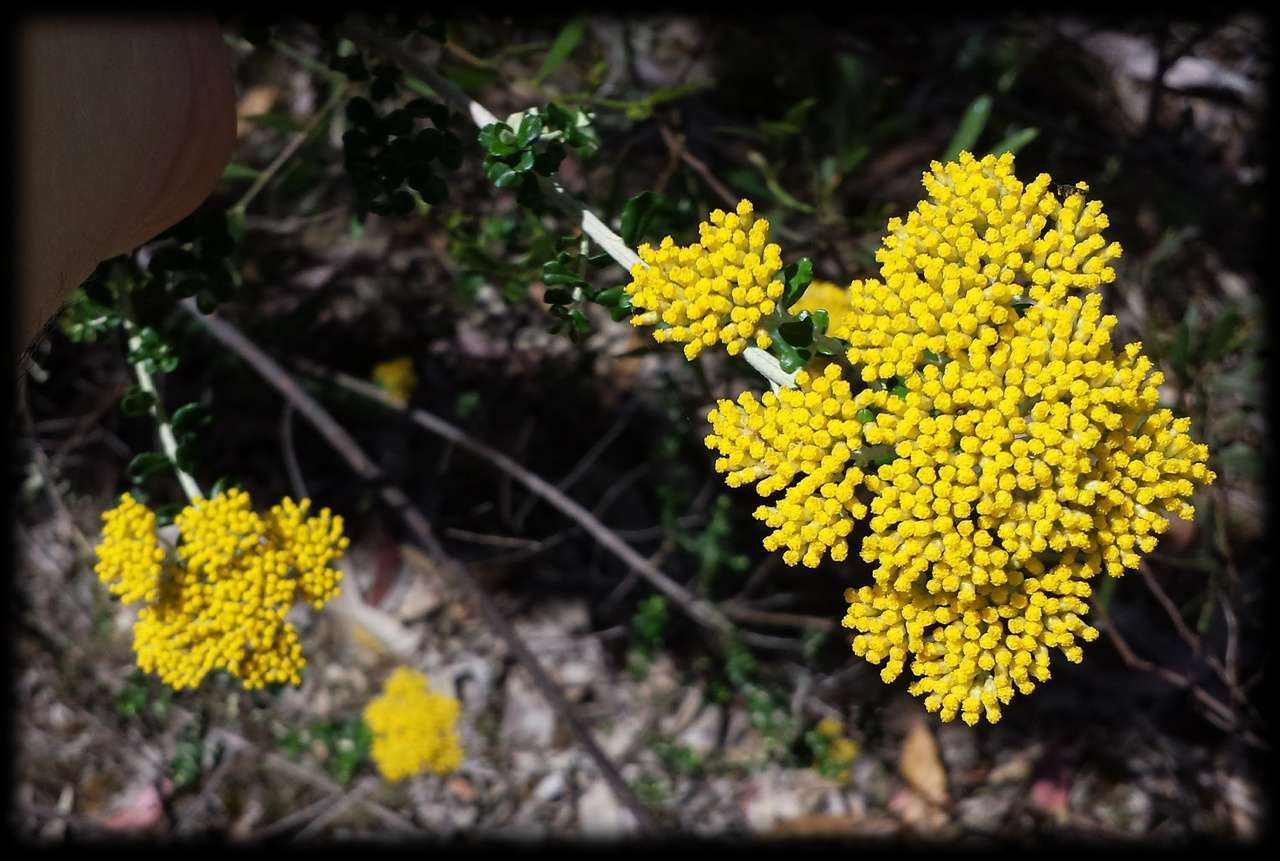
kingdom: Plantae
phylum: Tracheophyta
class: Magnoliopsida
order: Asterales
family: Asteraceae
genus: Ozothamnus
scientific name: Ozothamnus obcordatus
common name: Grey everlasting
